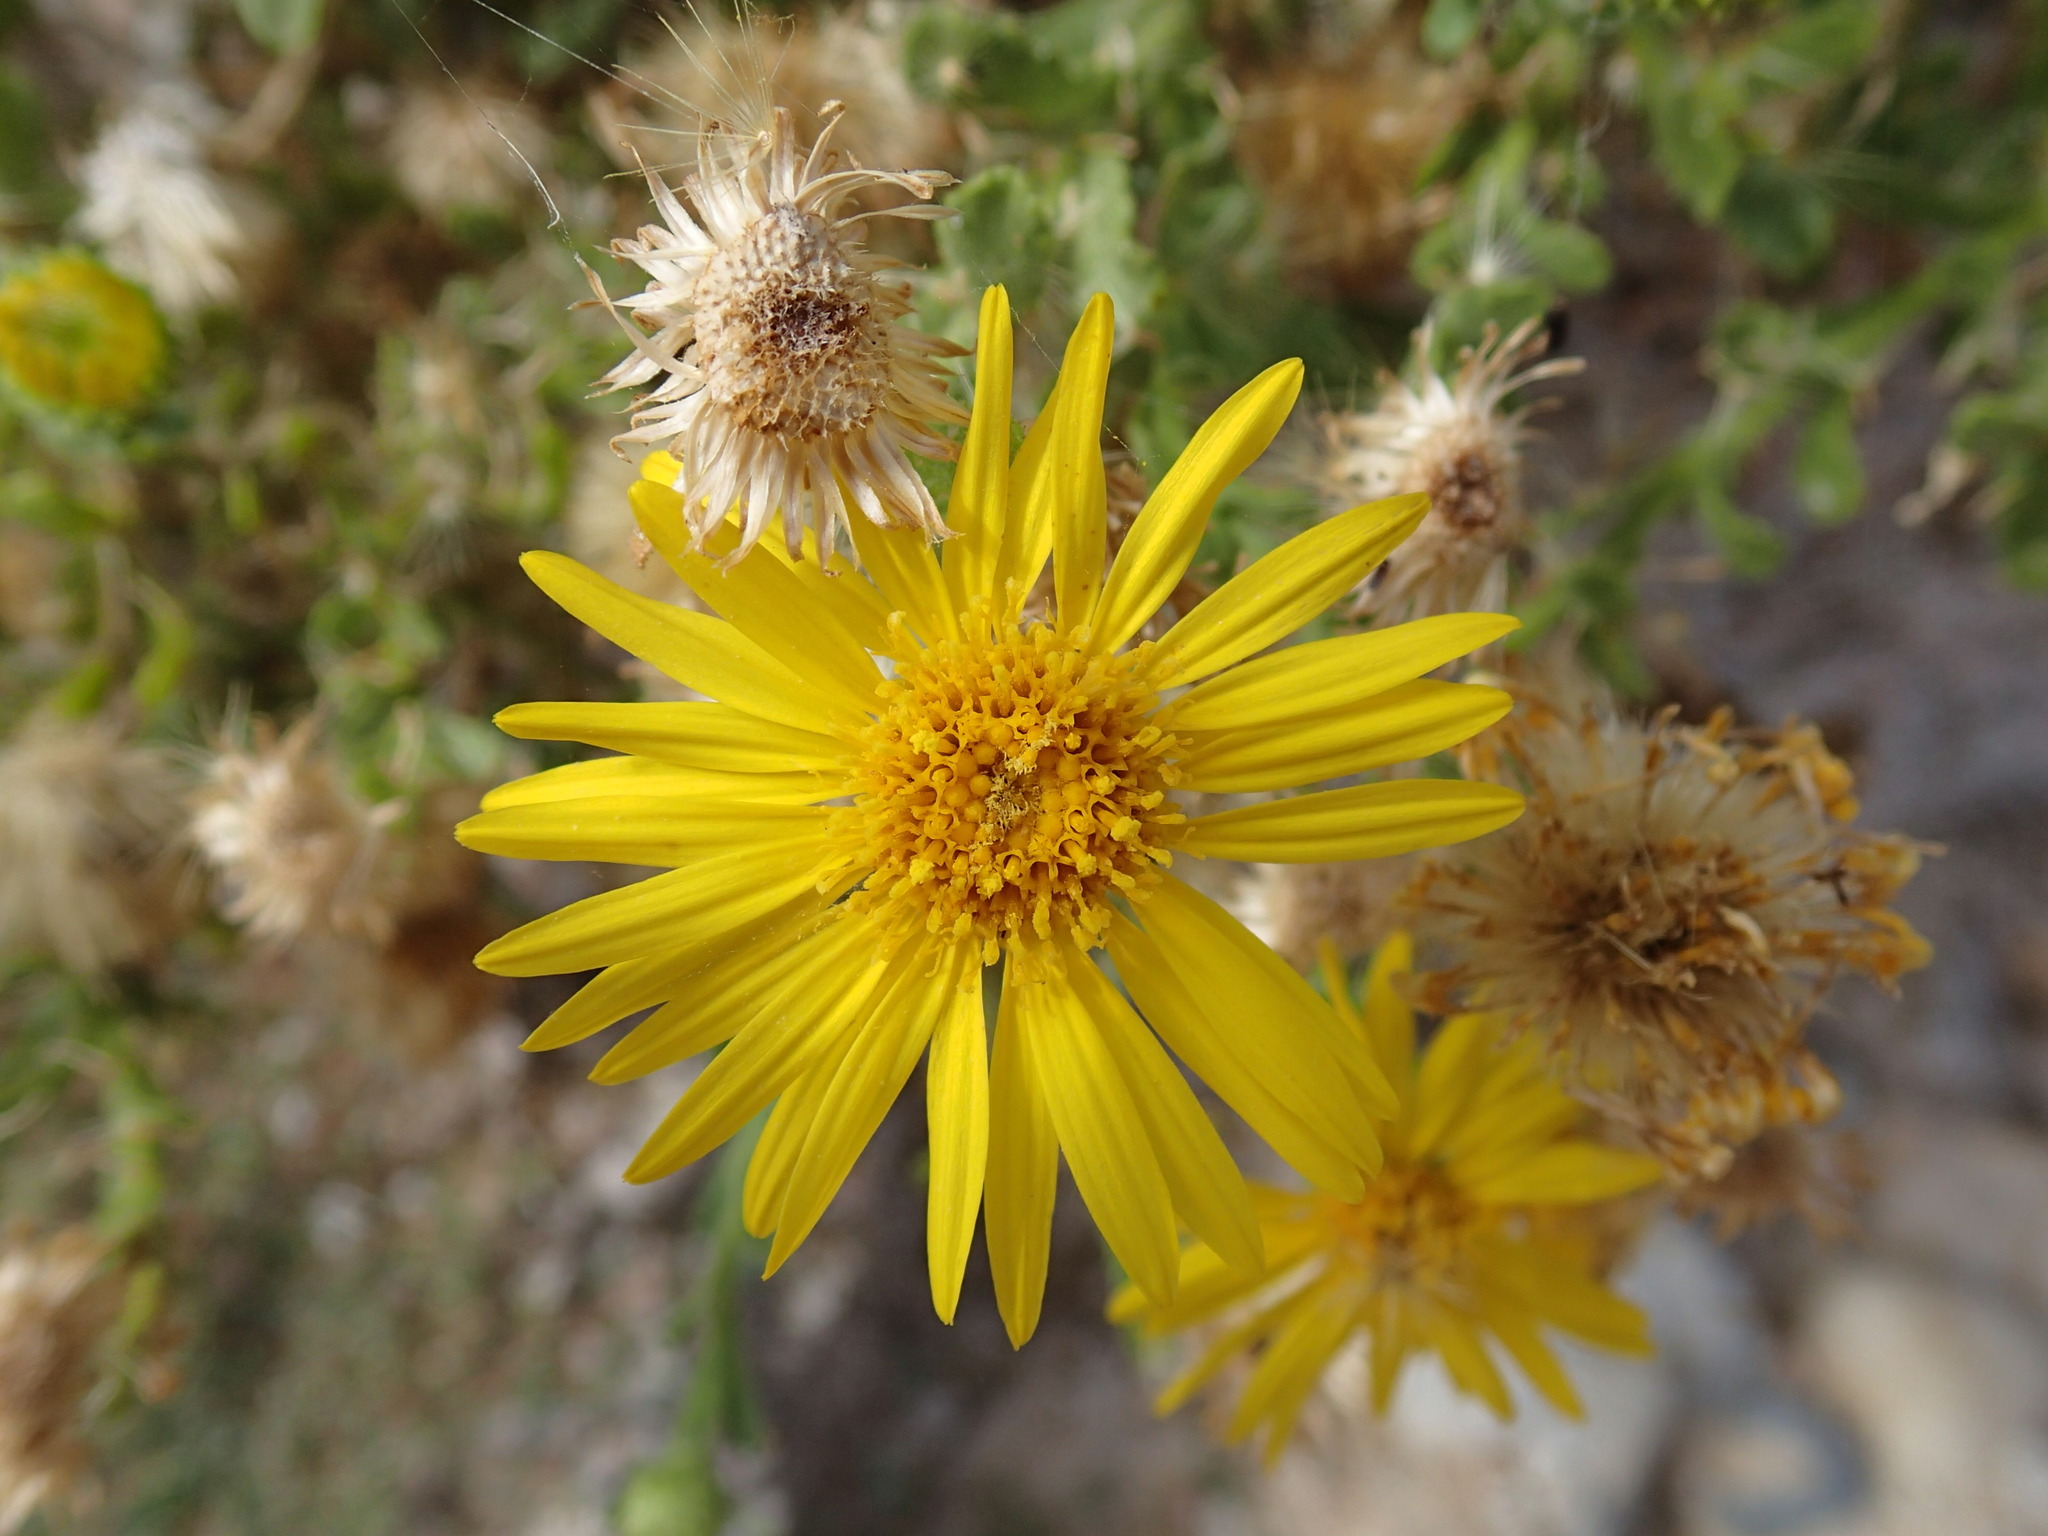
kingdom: Plantae
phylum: Tracheophyta
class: Magnoliopsida
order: Asterales
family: Asteraceae
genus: Xanthisma
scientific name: Xanthisma arenarium
